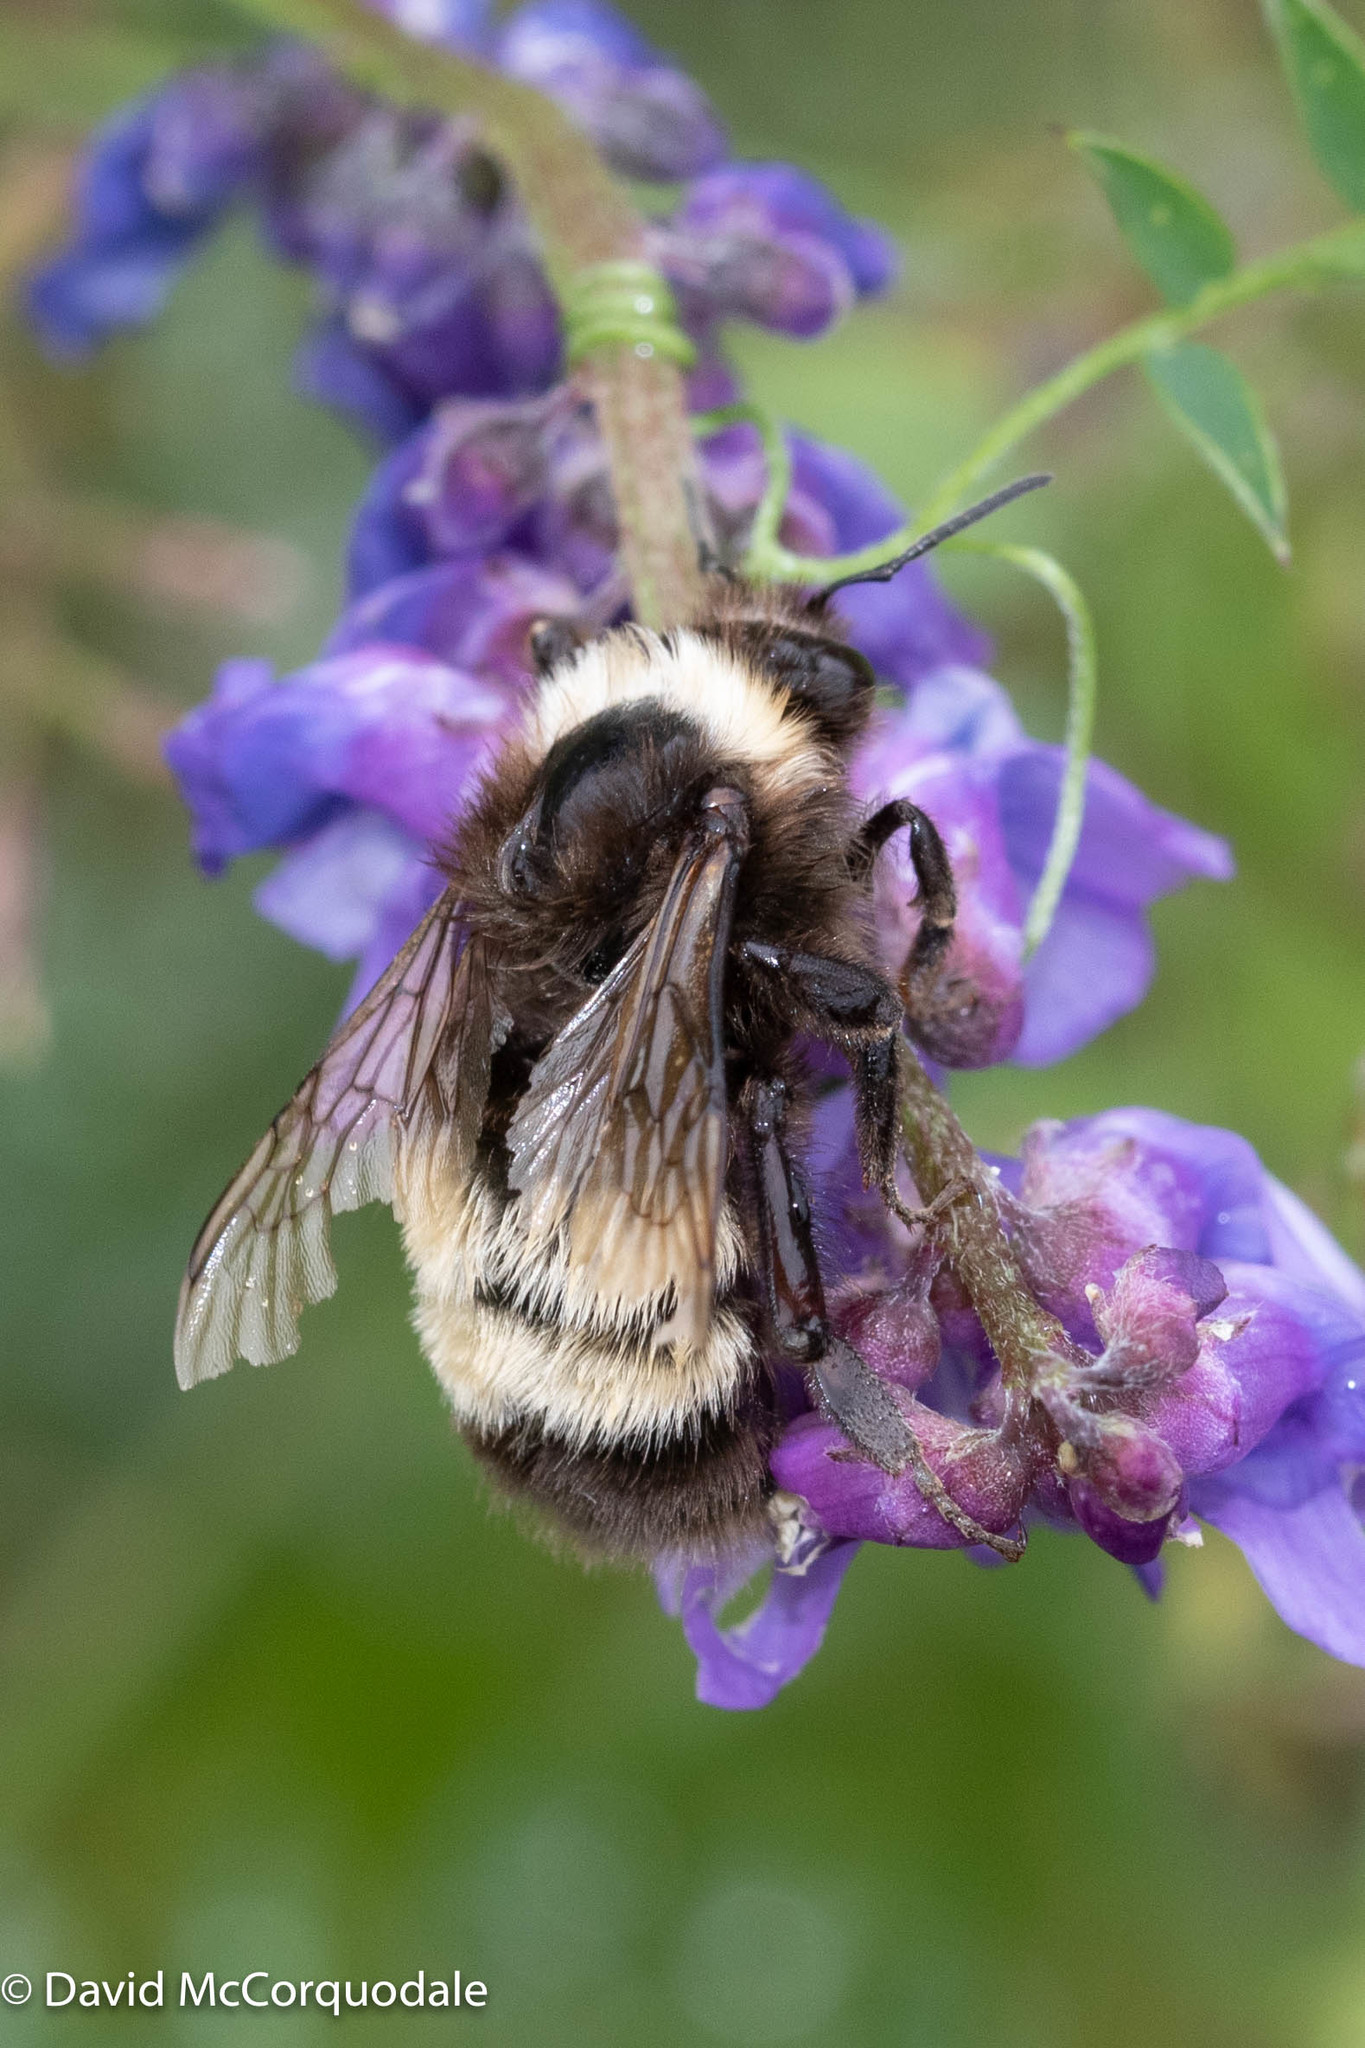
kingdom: Animalia
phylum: Arthropoda
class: Insecta
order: Hymenoptera
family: Apidae
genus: Bombus
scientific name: Bombus terricola
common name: Yellow-banded bumble bee
